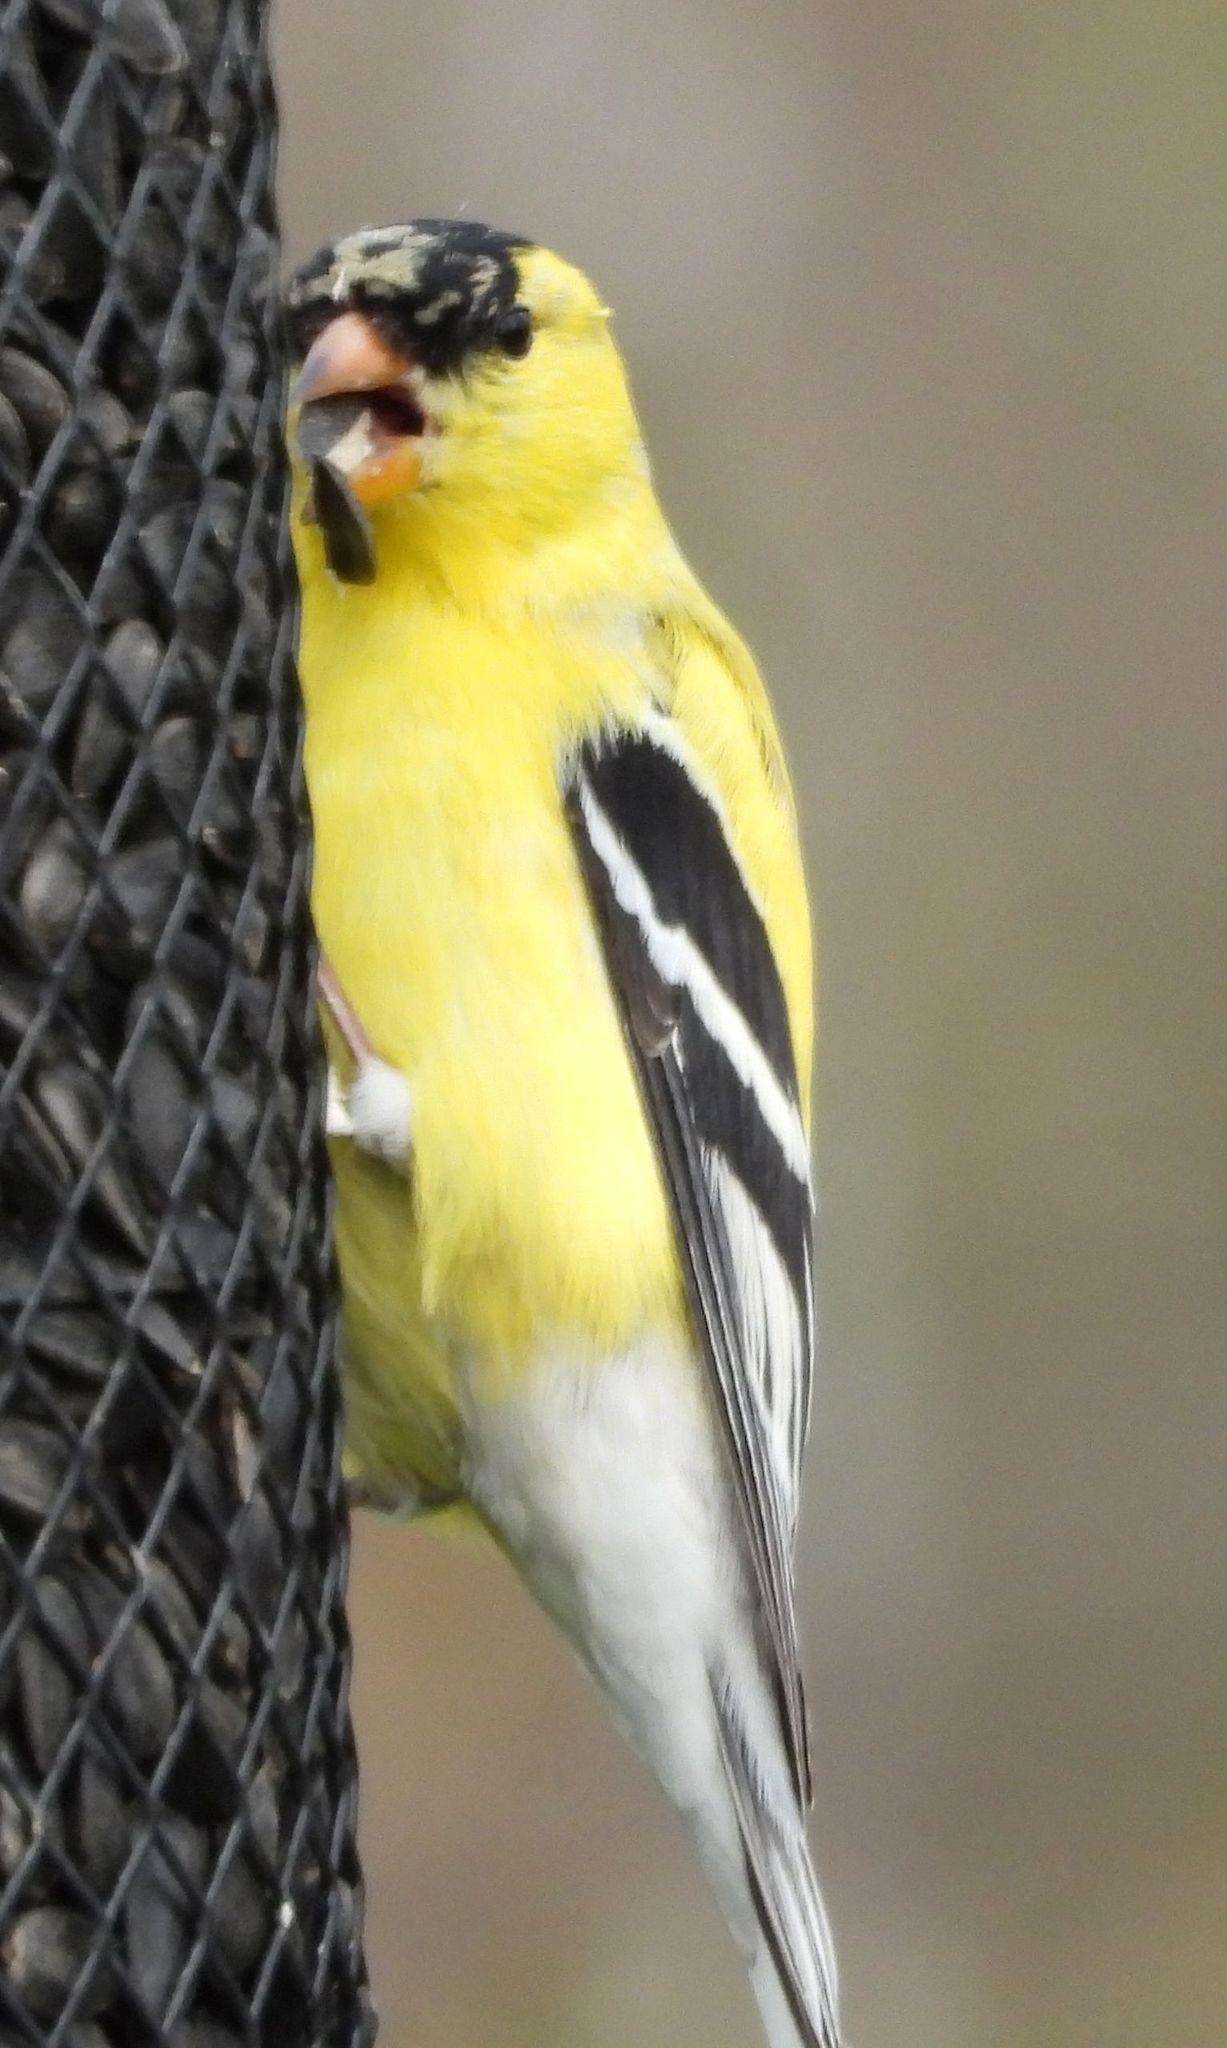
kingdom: Animalia
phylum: Chordata
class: Aves
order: Passeriformes
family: Fringillidae
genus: Spinus
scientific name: Spinus tristis
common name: American goldfinch
